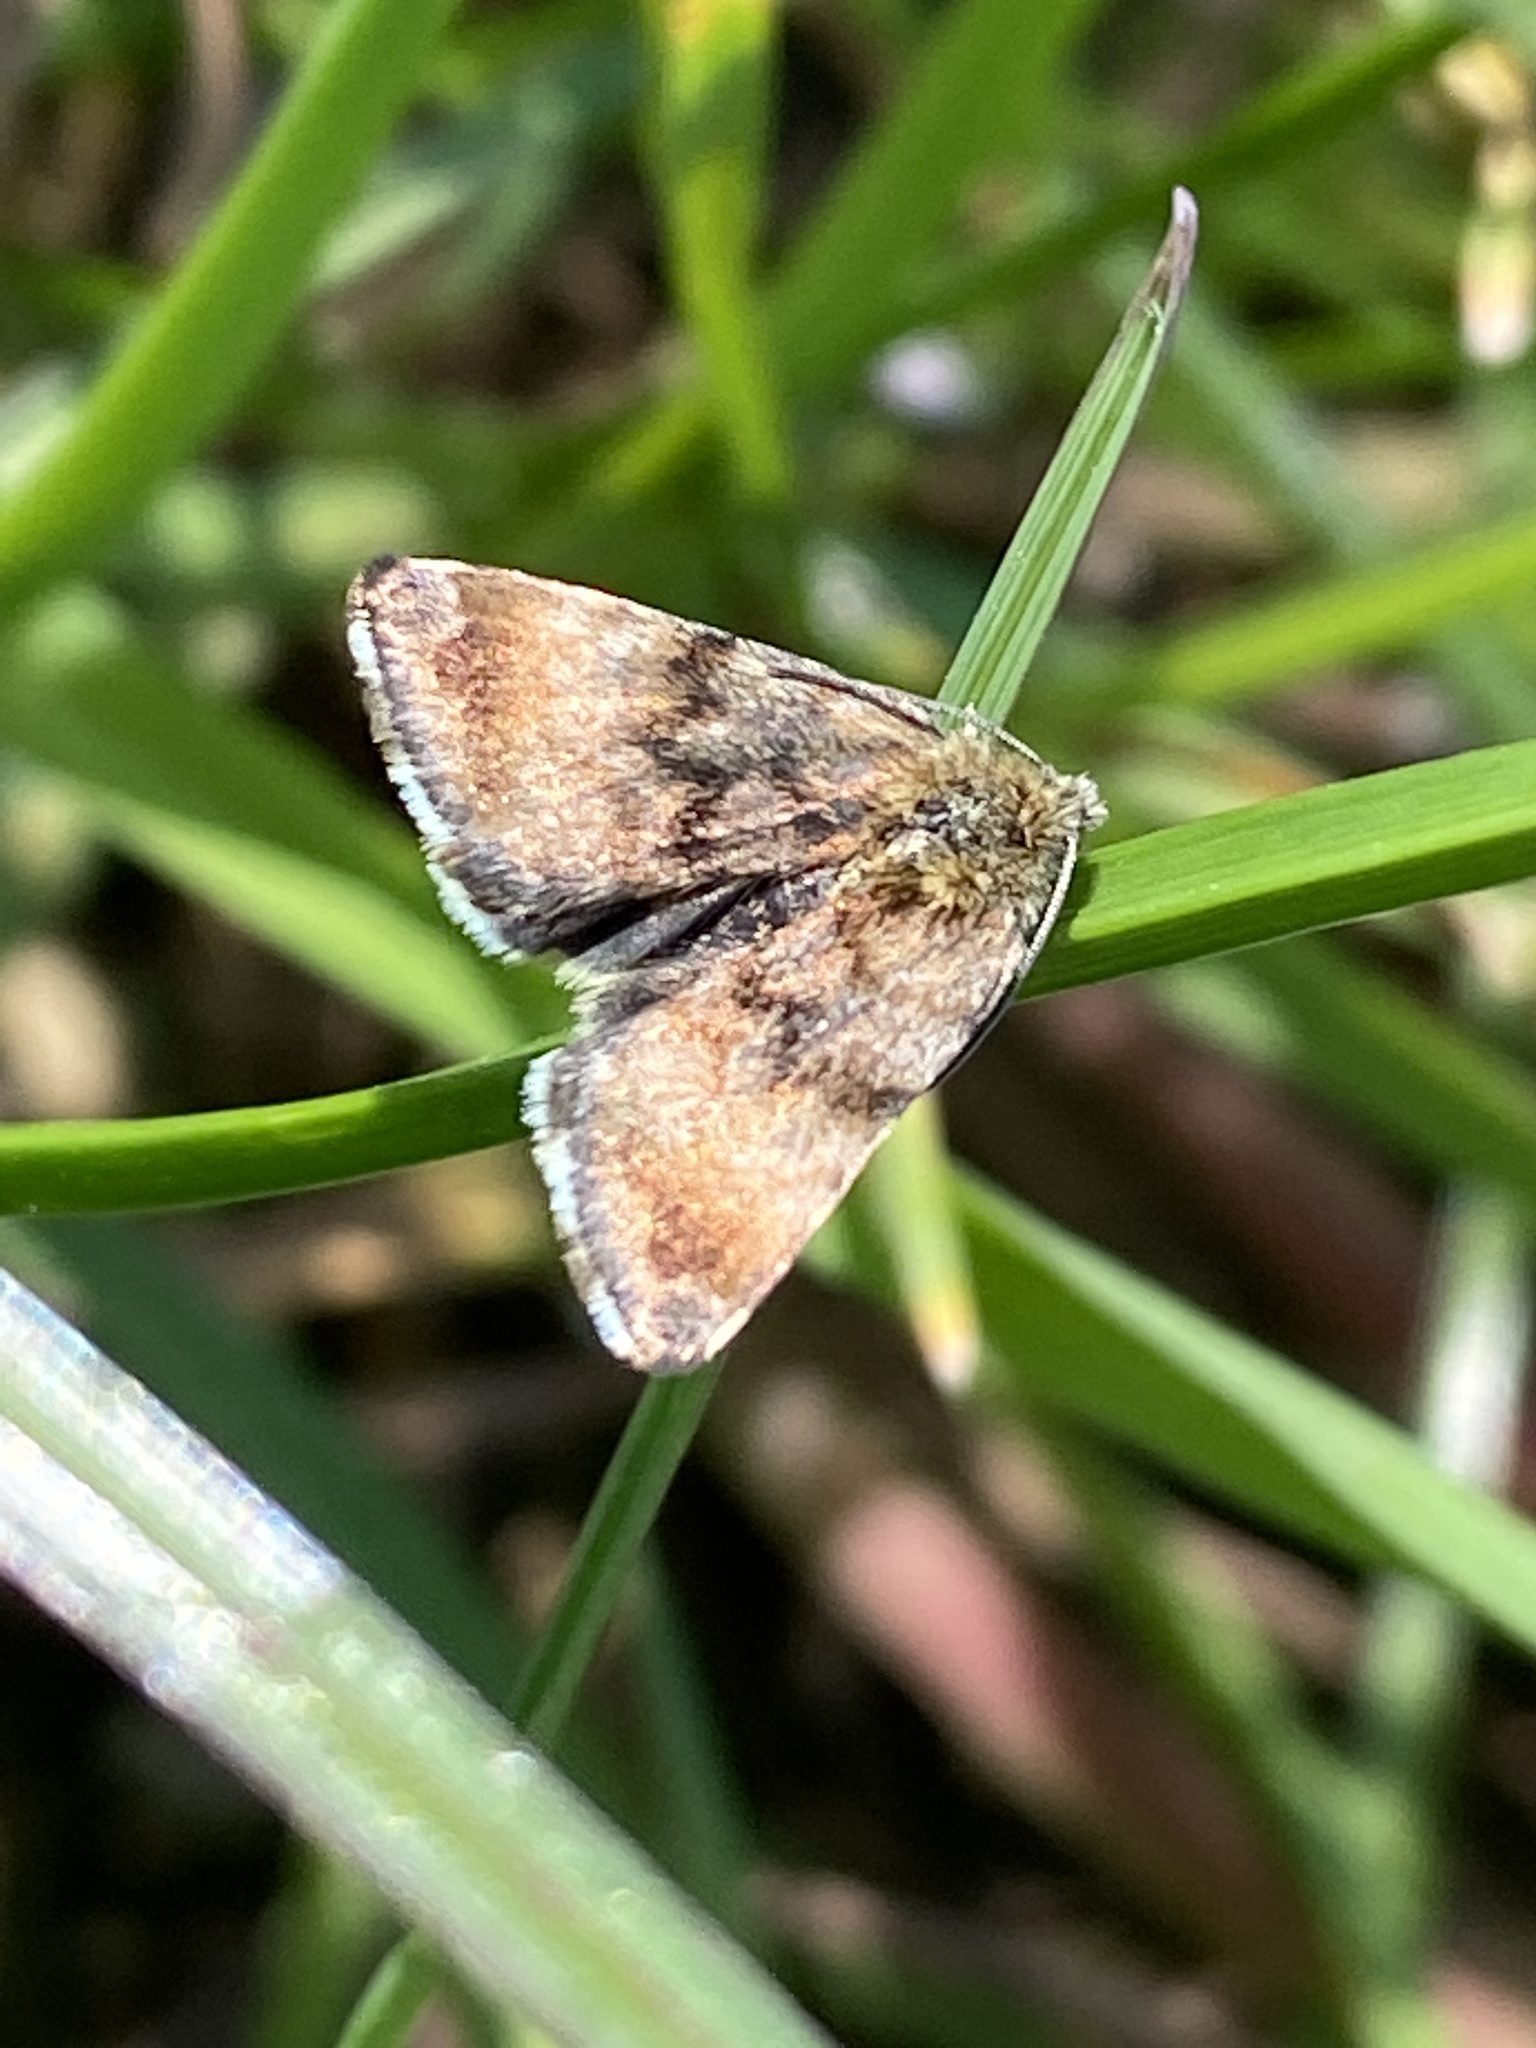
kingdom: Animalia
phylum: Arthropoda
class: Insecta
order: Lepidoptera
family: Noctuidae
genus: Panemeria
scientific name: Panemeria tenebrata
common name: Small yellow underwing
